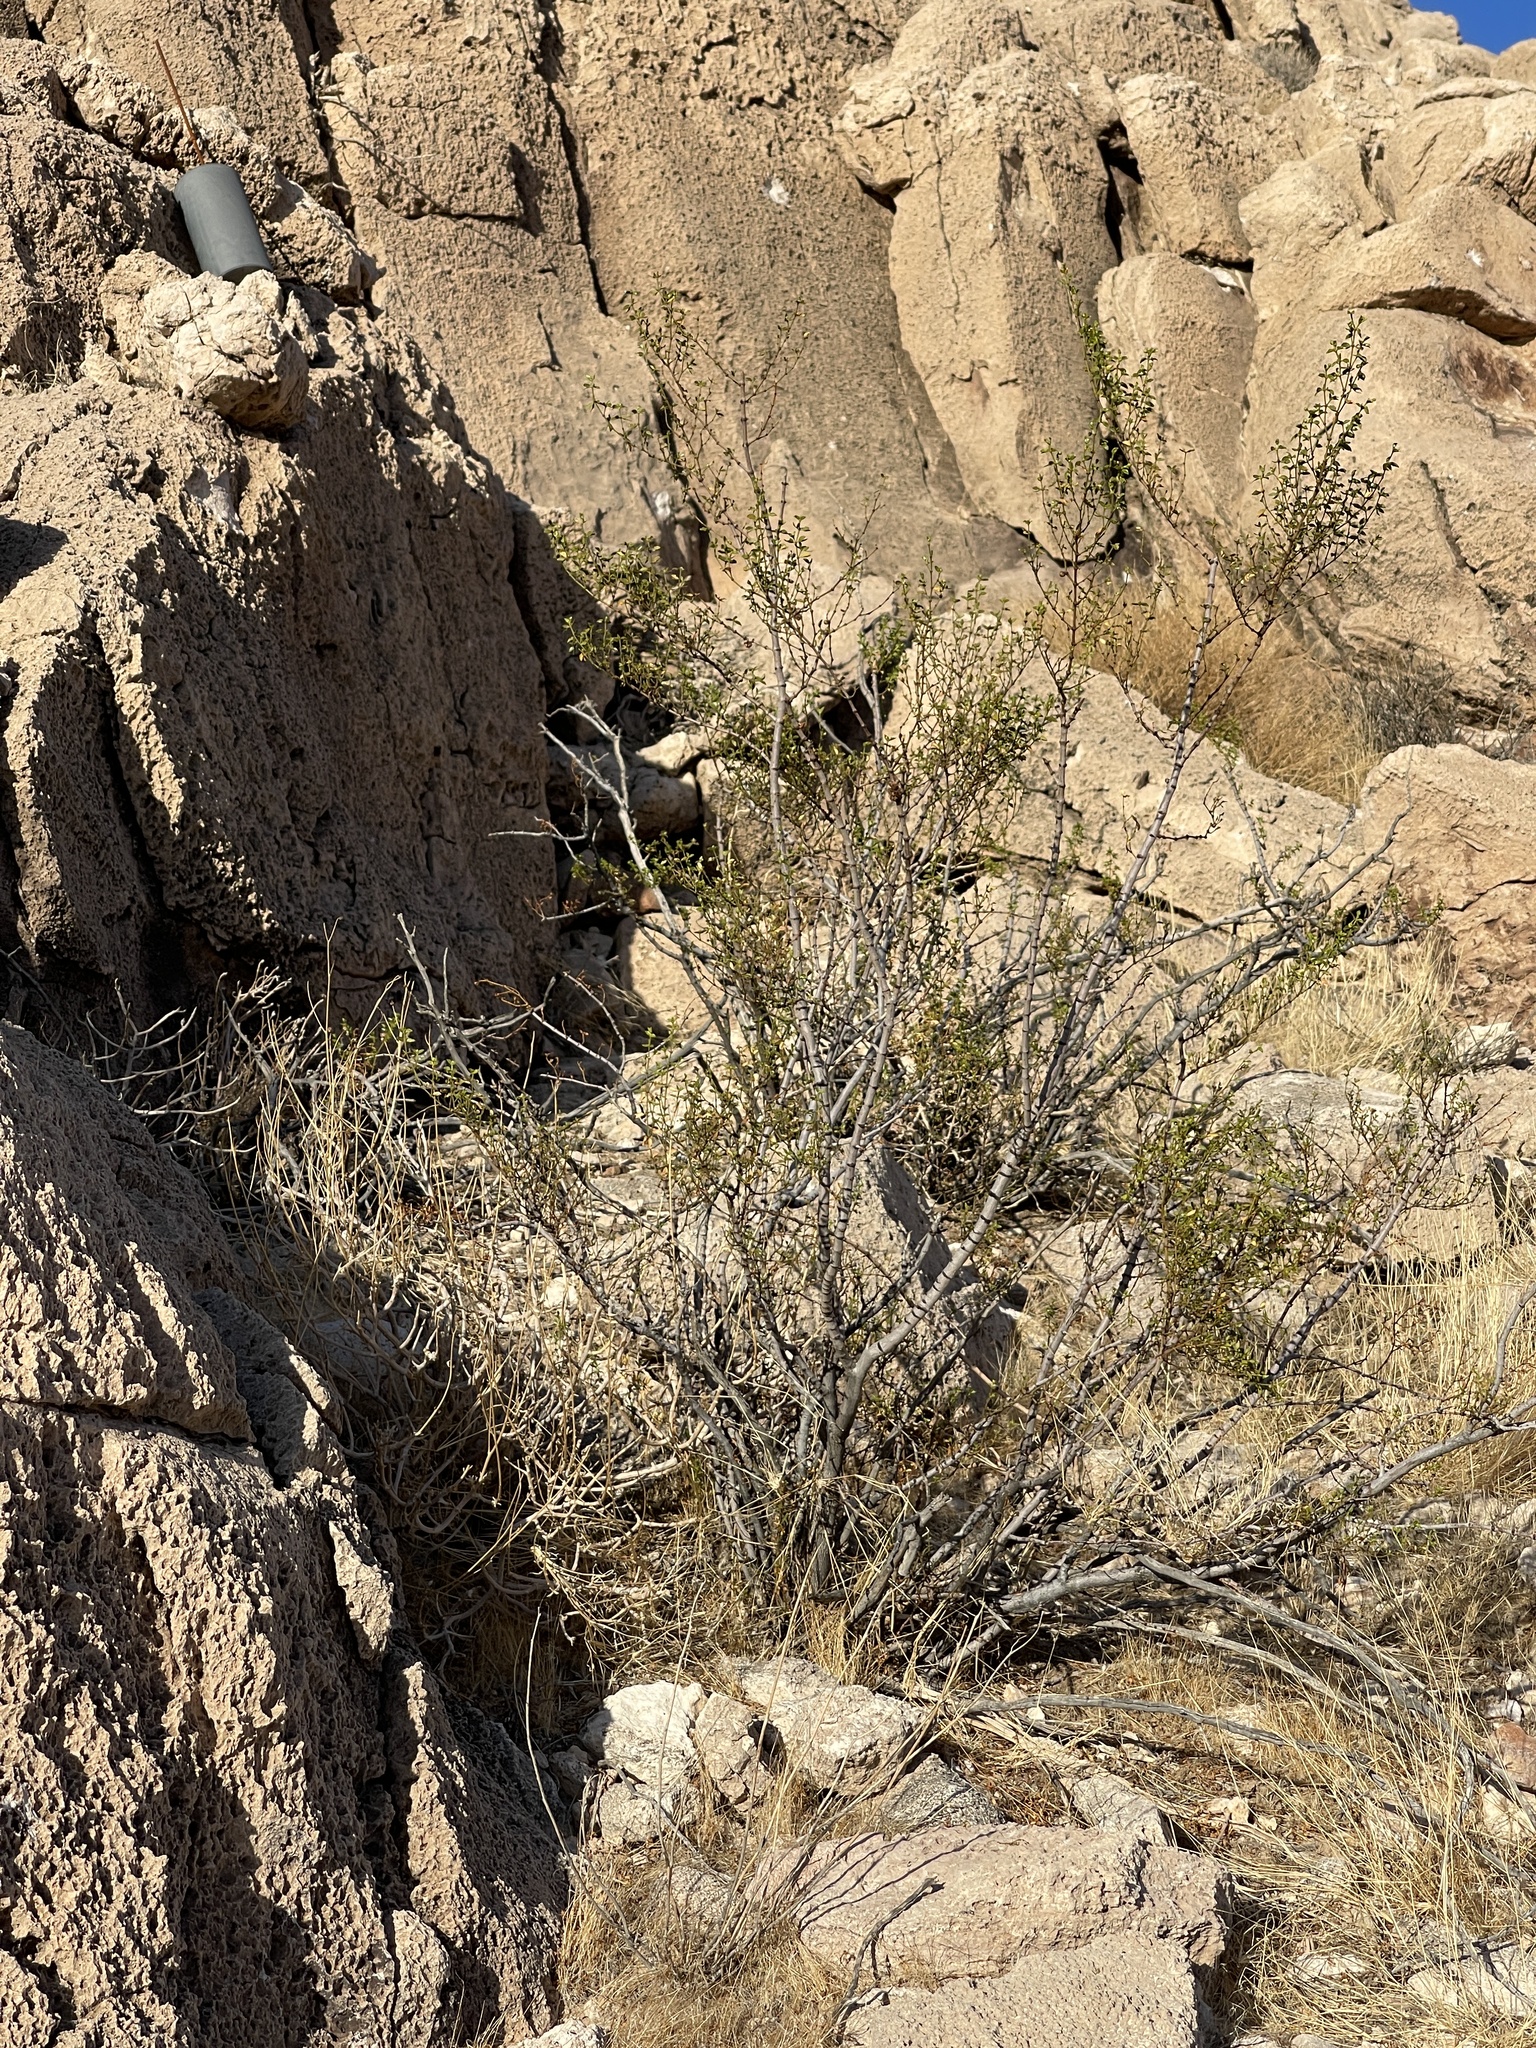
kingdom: Plantae
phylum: Tracheophyta
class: Magnoliopsida
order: Zygophyllales
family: Zygophyllaceae
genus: Larrea
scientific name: Larrea tridentata
